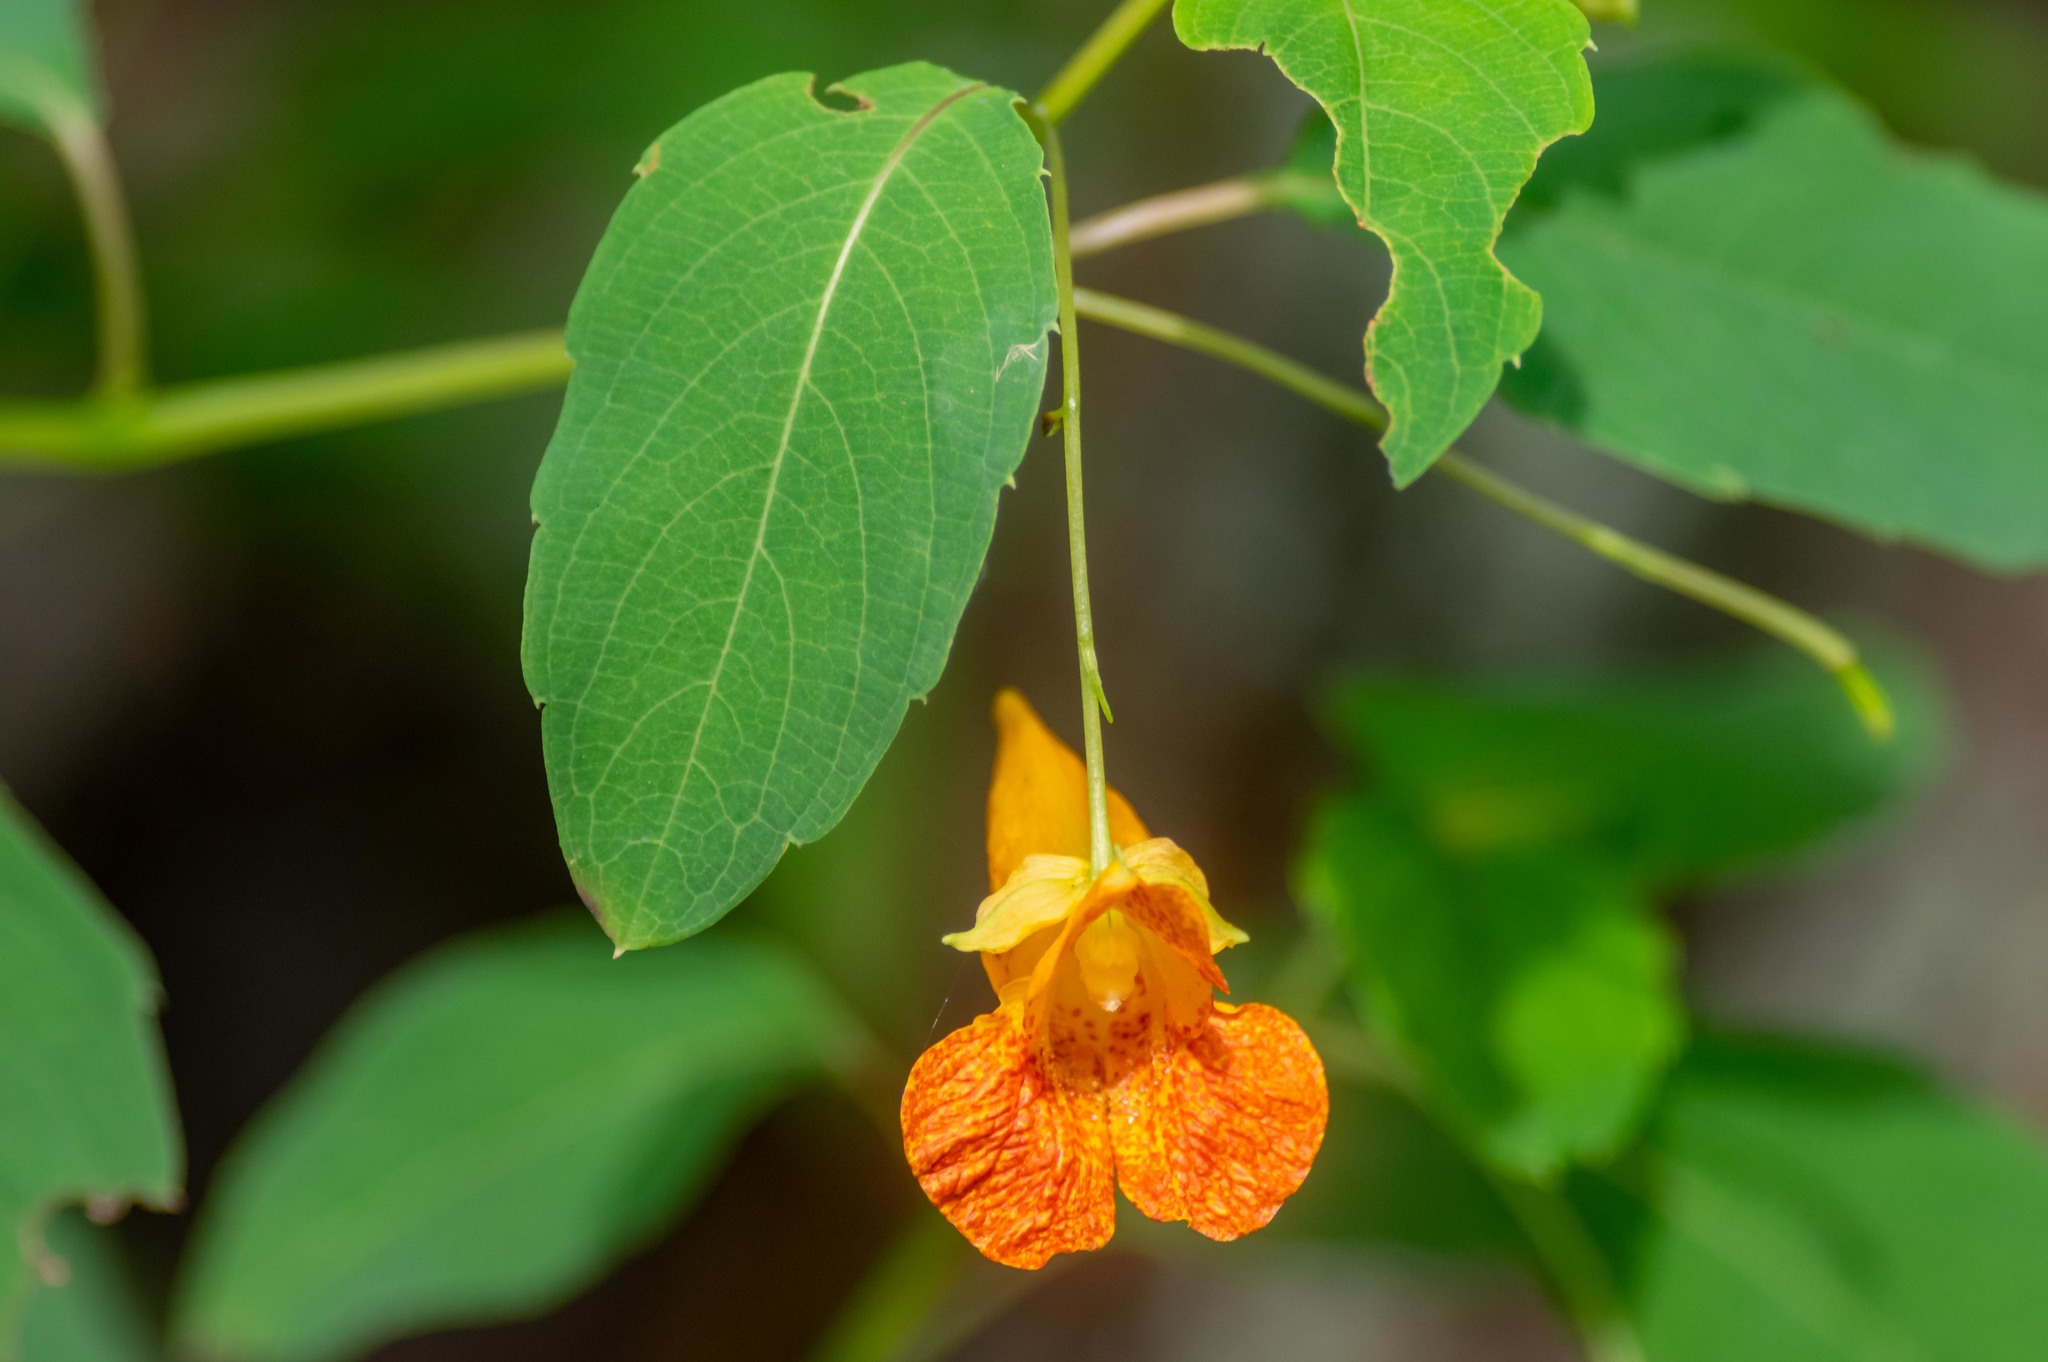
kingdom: Plantae
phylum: Tracheophyta
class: Magnoliopsida
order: Ericales
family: Balsaminaceae
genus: Impatiens
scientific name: Impatiens capensis
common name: Orange balsam
